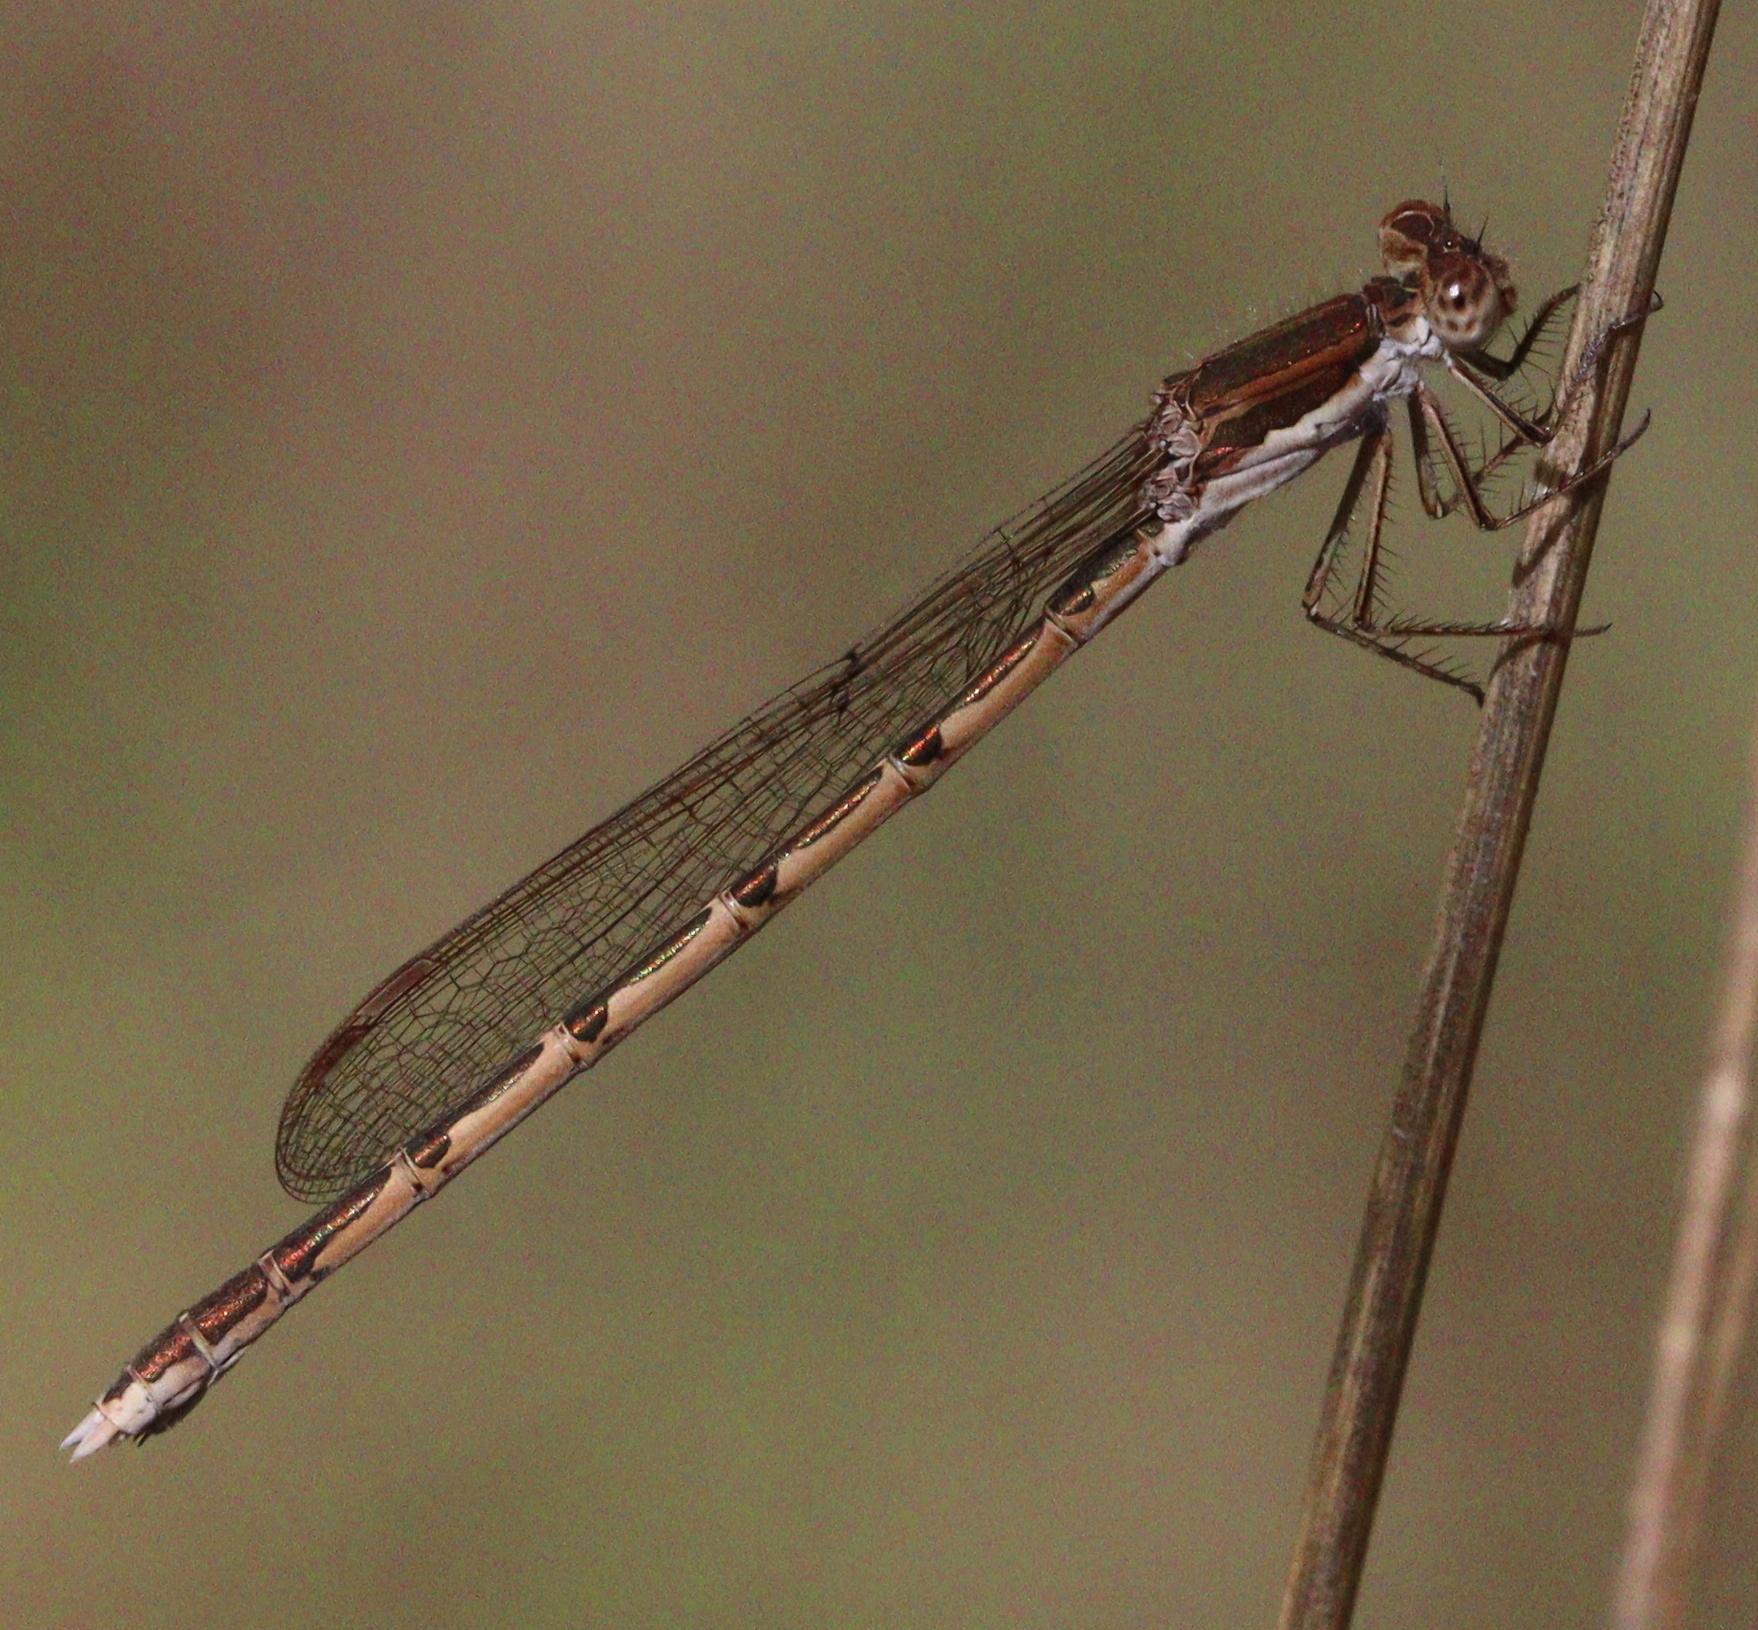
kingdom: Animalia
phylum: Arthropoda
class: Insecta
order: Odonata
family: Lestidae
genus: Sympecma
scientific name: Sympecma fusca
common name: Common winter damsel
